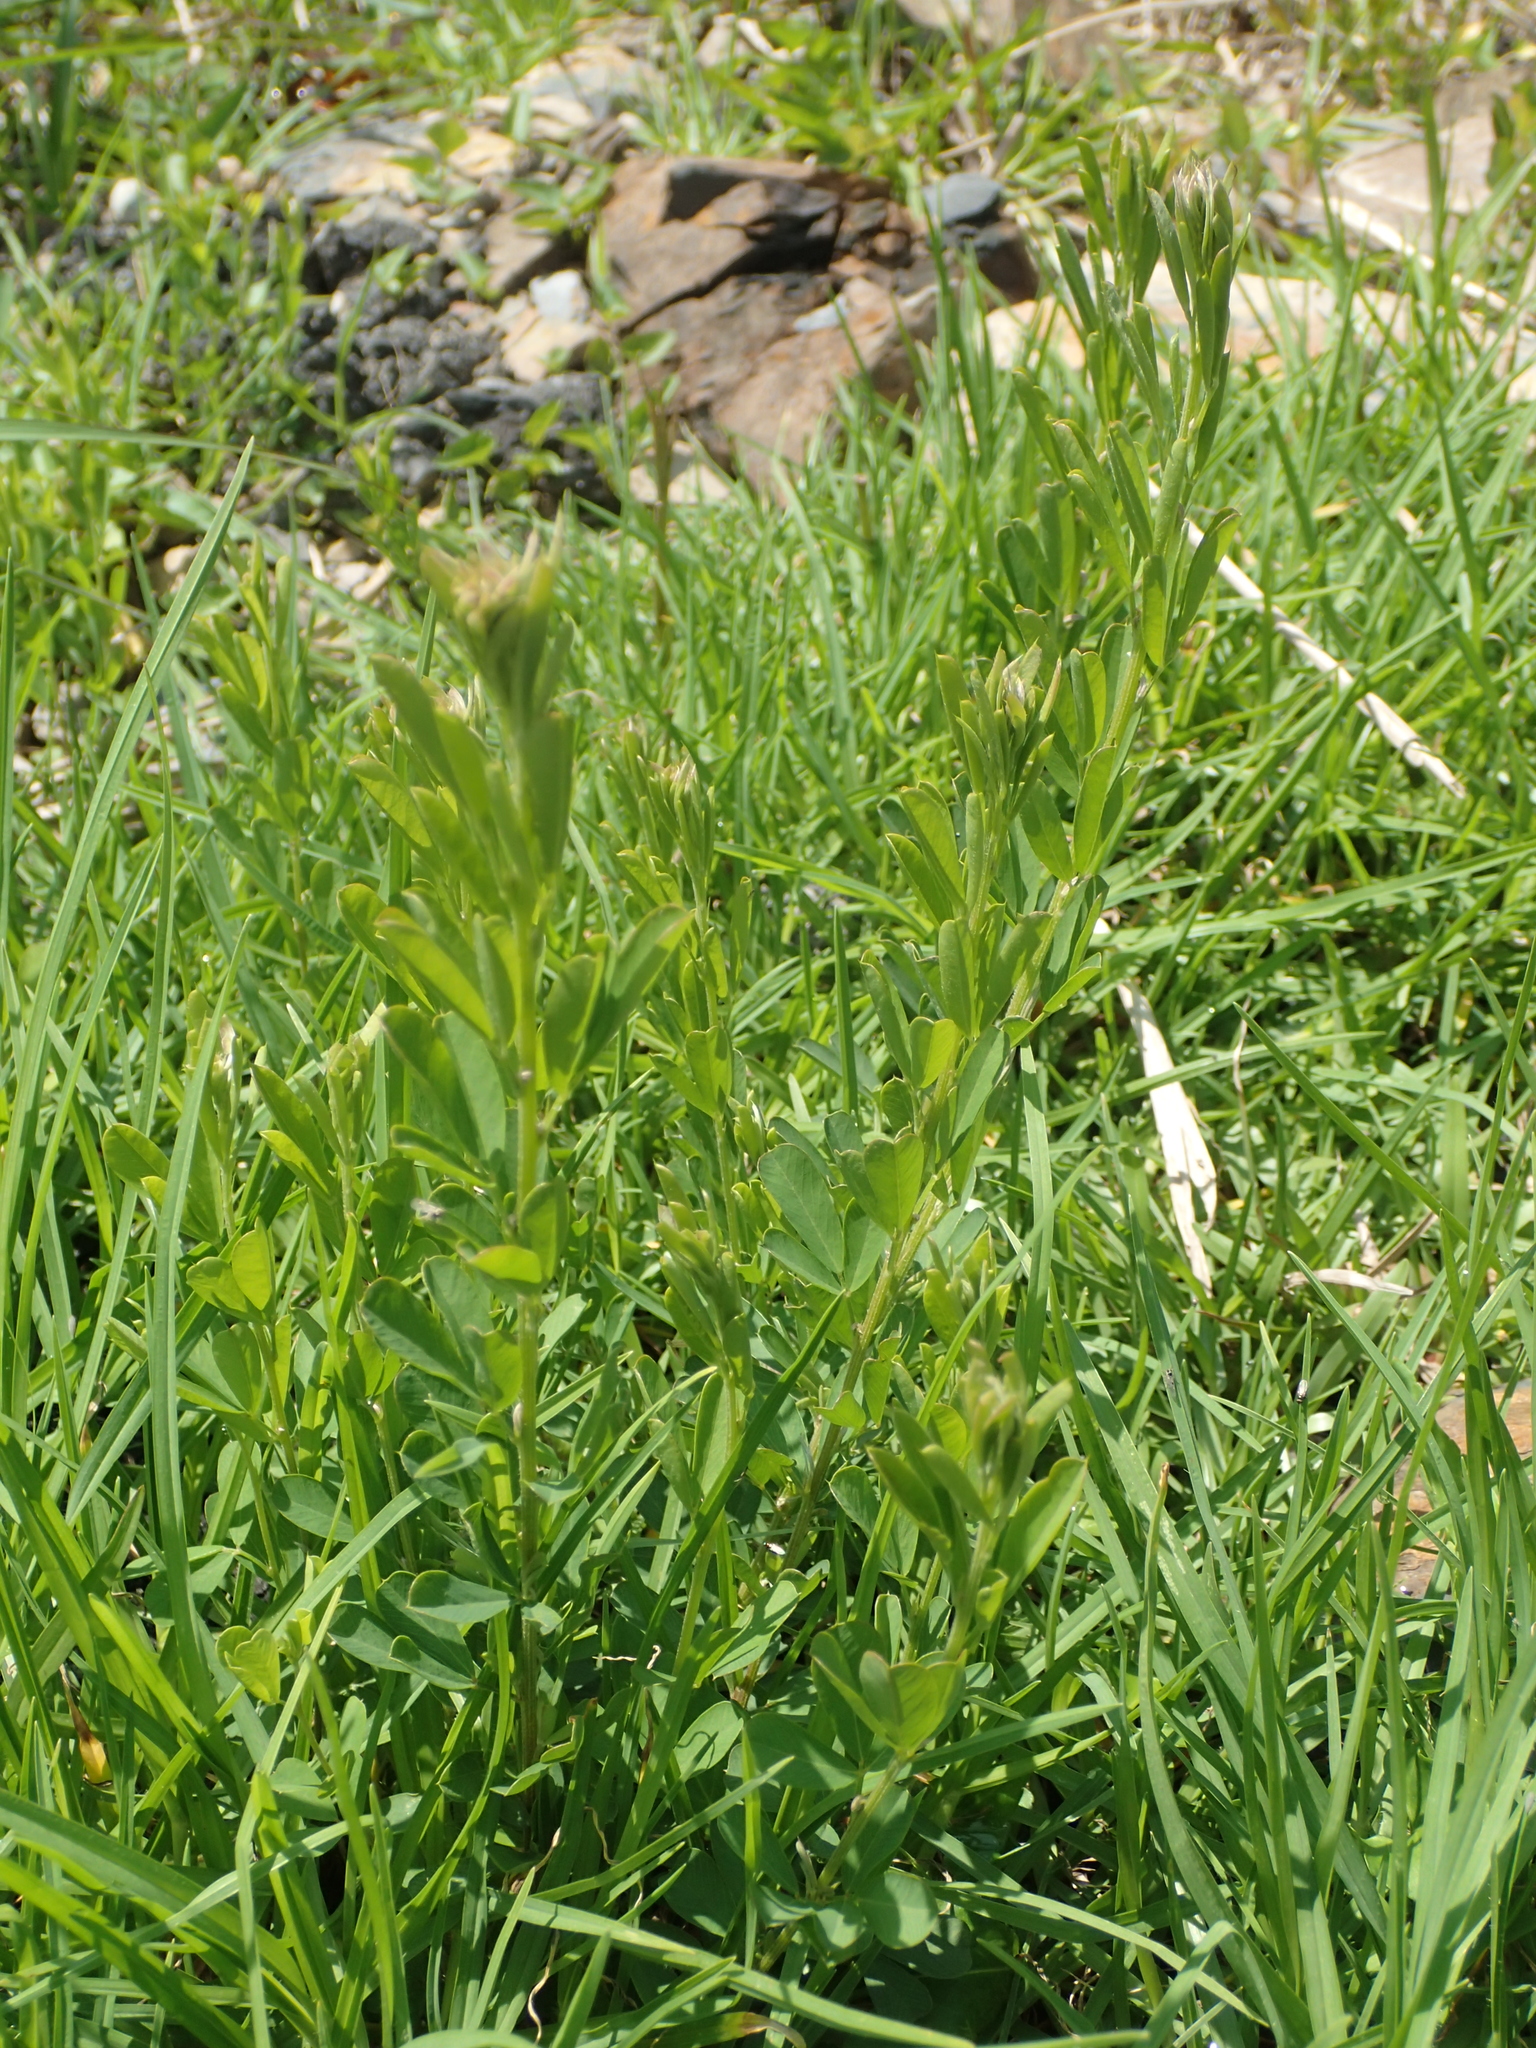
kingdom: Plantae
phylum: Tracheophyta
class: Magnoliopsida
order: Fabales
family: Fabaceae
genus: Lespedeza
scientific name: Lespedeza cuneata
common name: Chinese bush-clover
